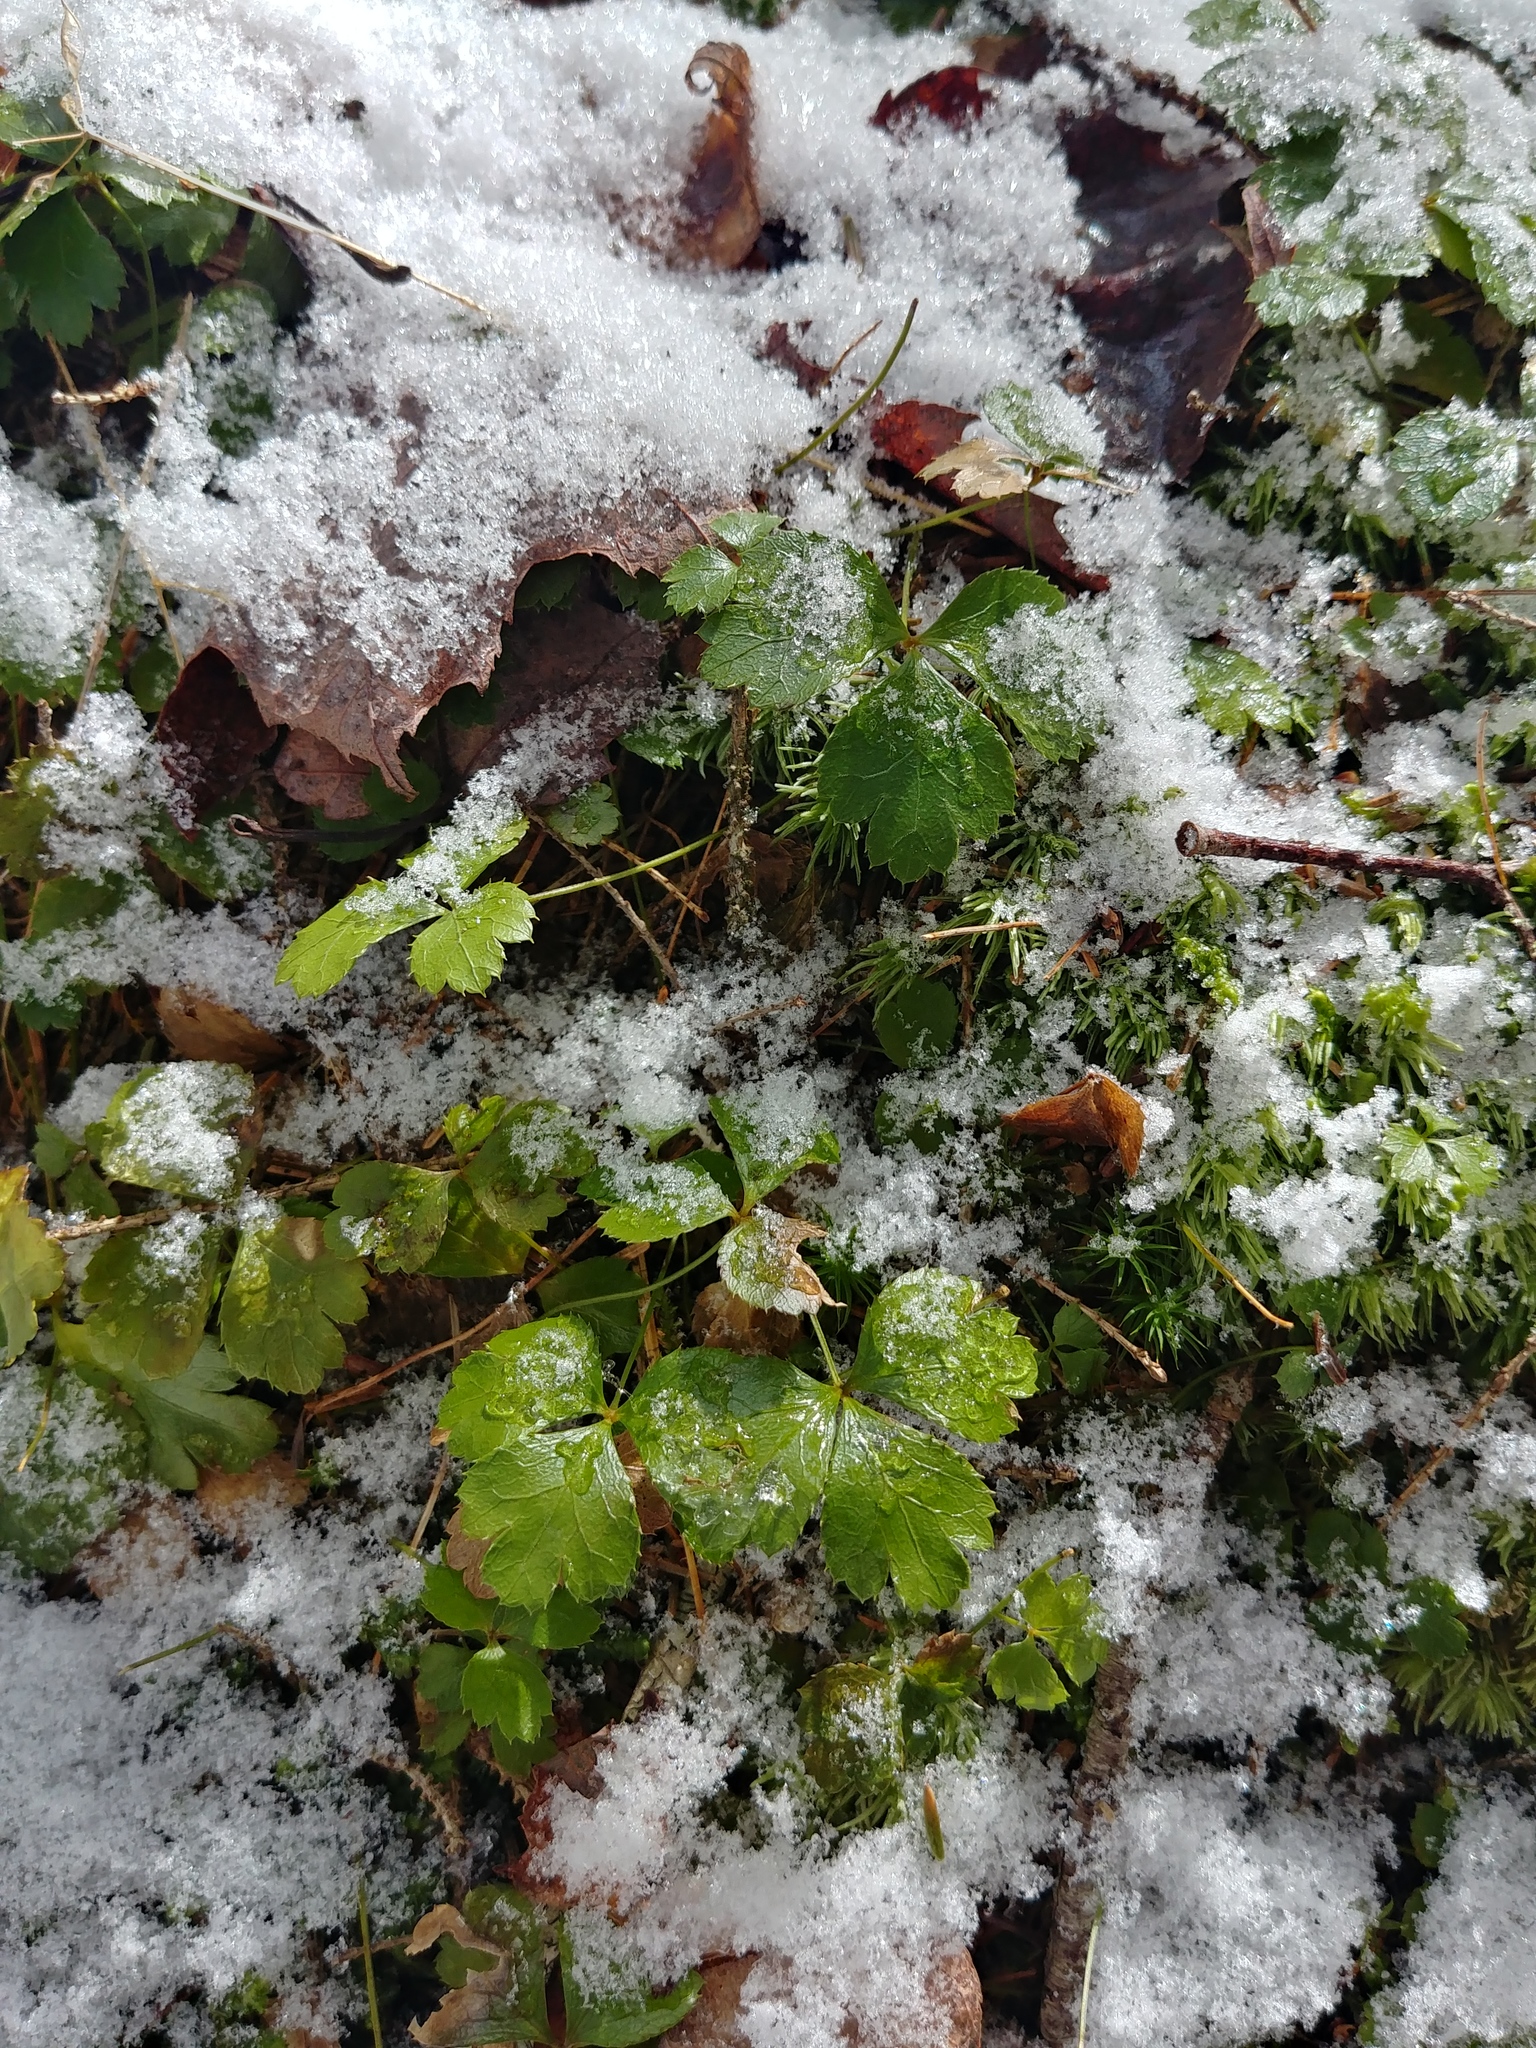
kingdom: Plantae
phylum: Tracheophyta
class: Magnoliopsida
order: Ranunculales
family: Ranunculaceae
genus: Coptis
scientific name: Coptis trifolia
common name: Canker-root
